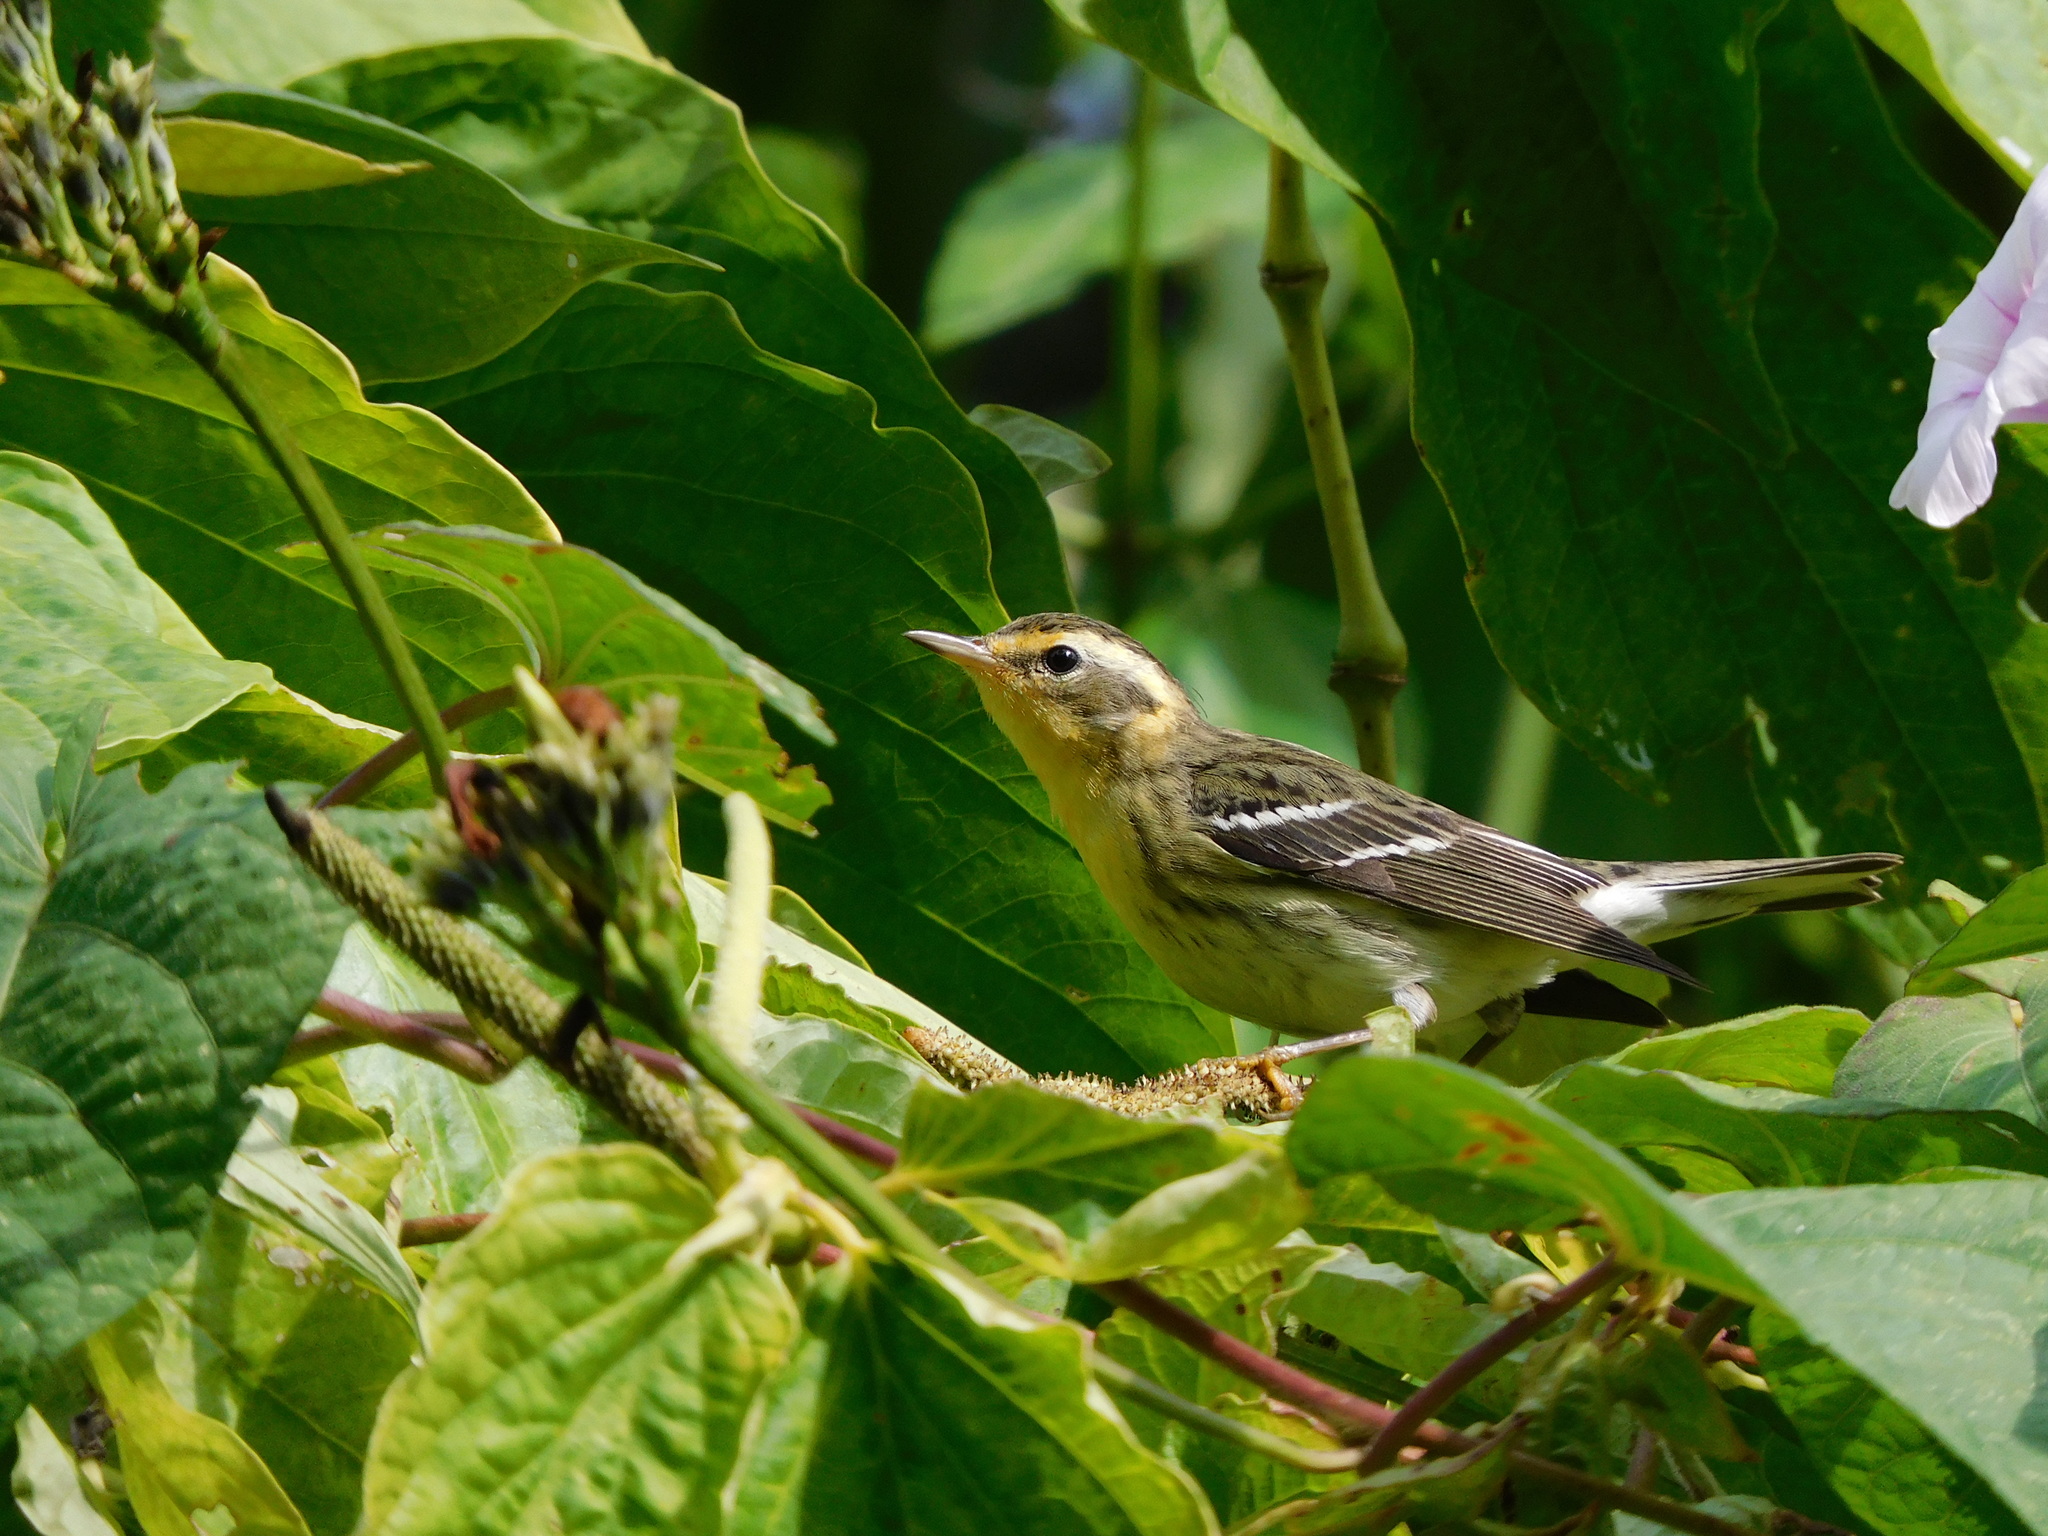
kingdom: Animalia
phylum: Chordata
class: Aves
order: Passeriformes
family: Parulidae
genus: Setophaga
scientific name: Setophaga fusca
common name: Blackburnian warbler
